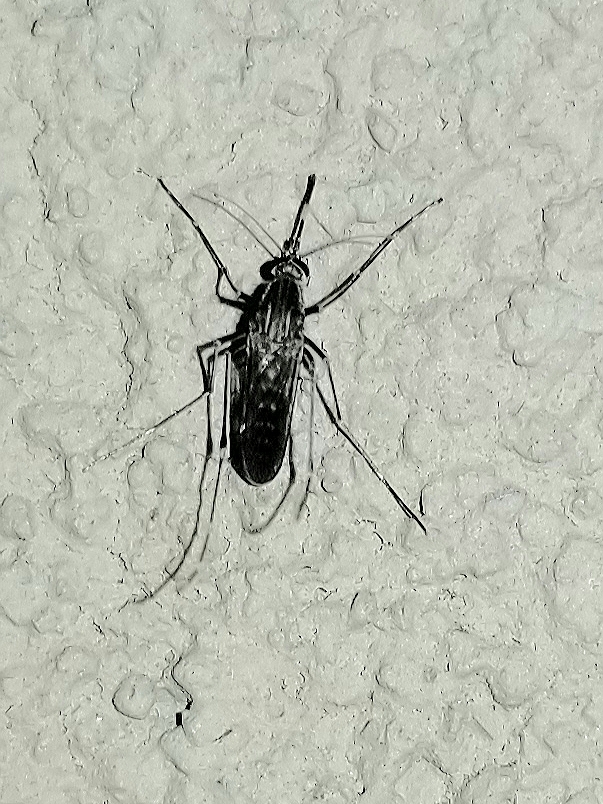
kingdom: Animalia
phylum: Arthropoda
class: Insecta
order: Diptera
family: Culicidae
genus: Culex
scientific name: Culex tarsalis
